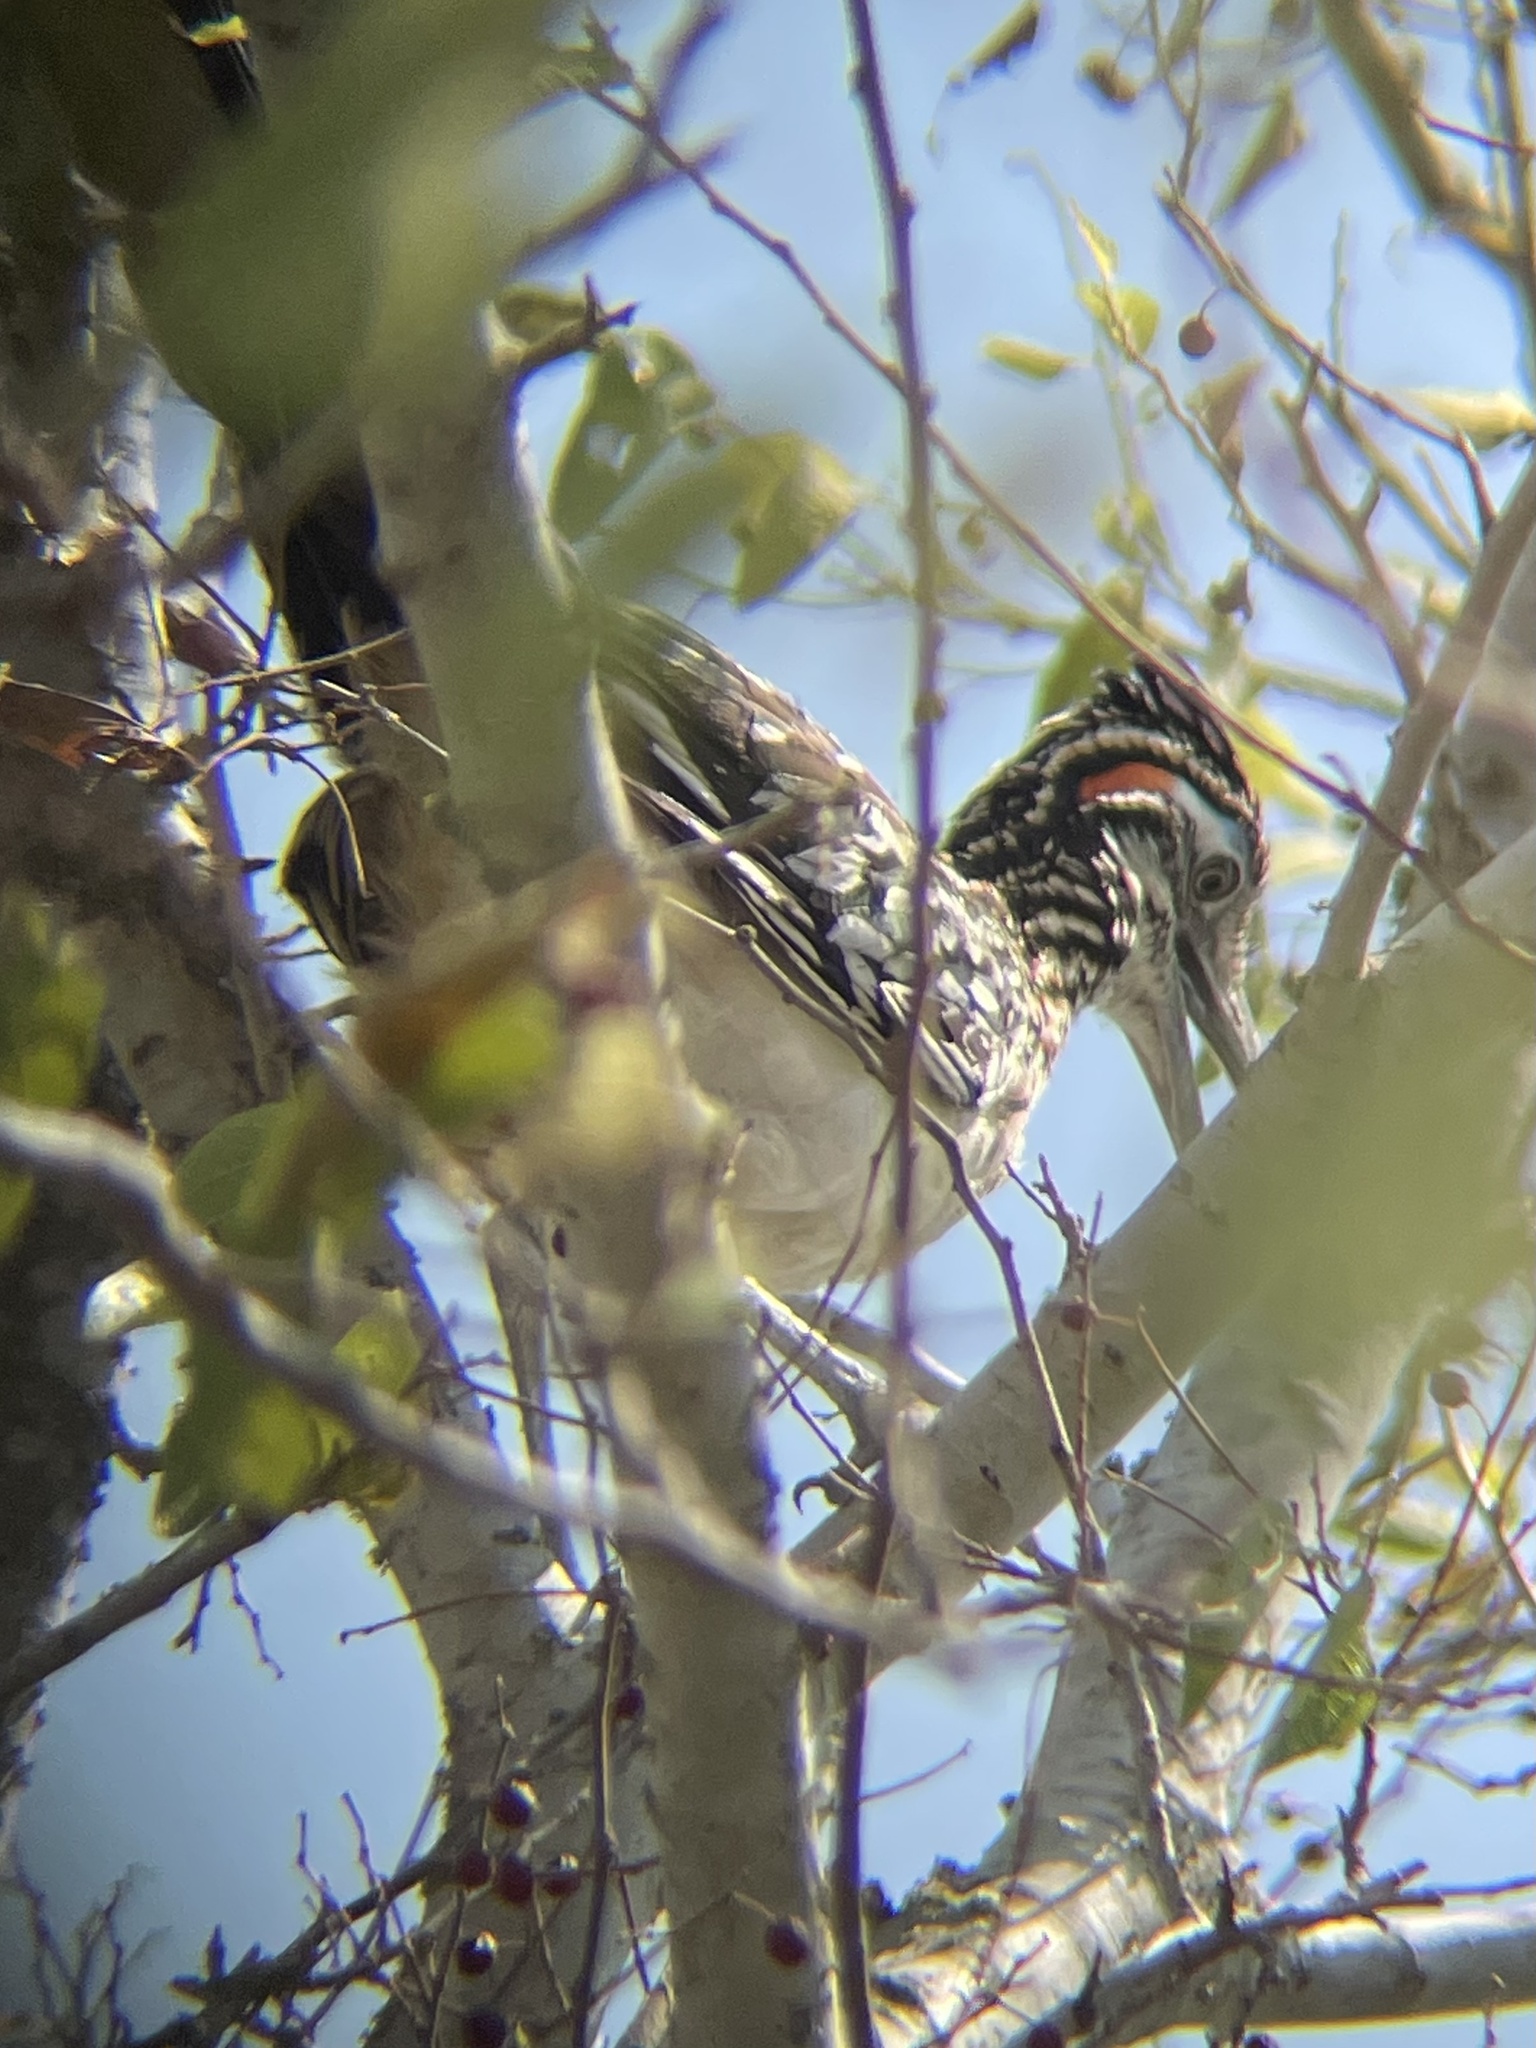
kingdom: Animalia
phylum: Chordata
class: Aves
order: Cuculiformes
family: Cuculidae
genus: Geococcyx
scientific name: Geococcyx californianus
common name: Greater roadrunner
